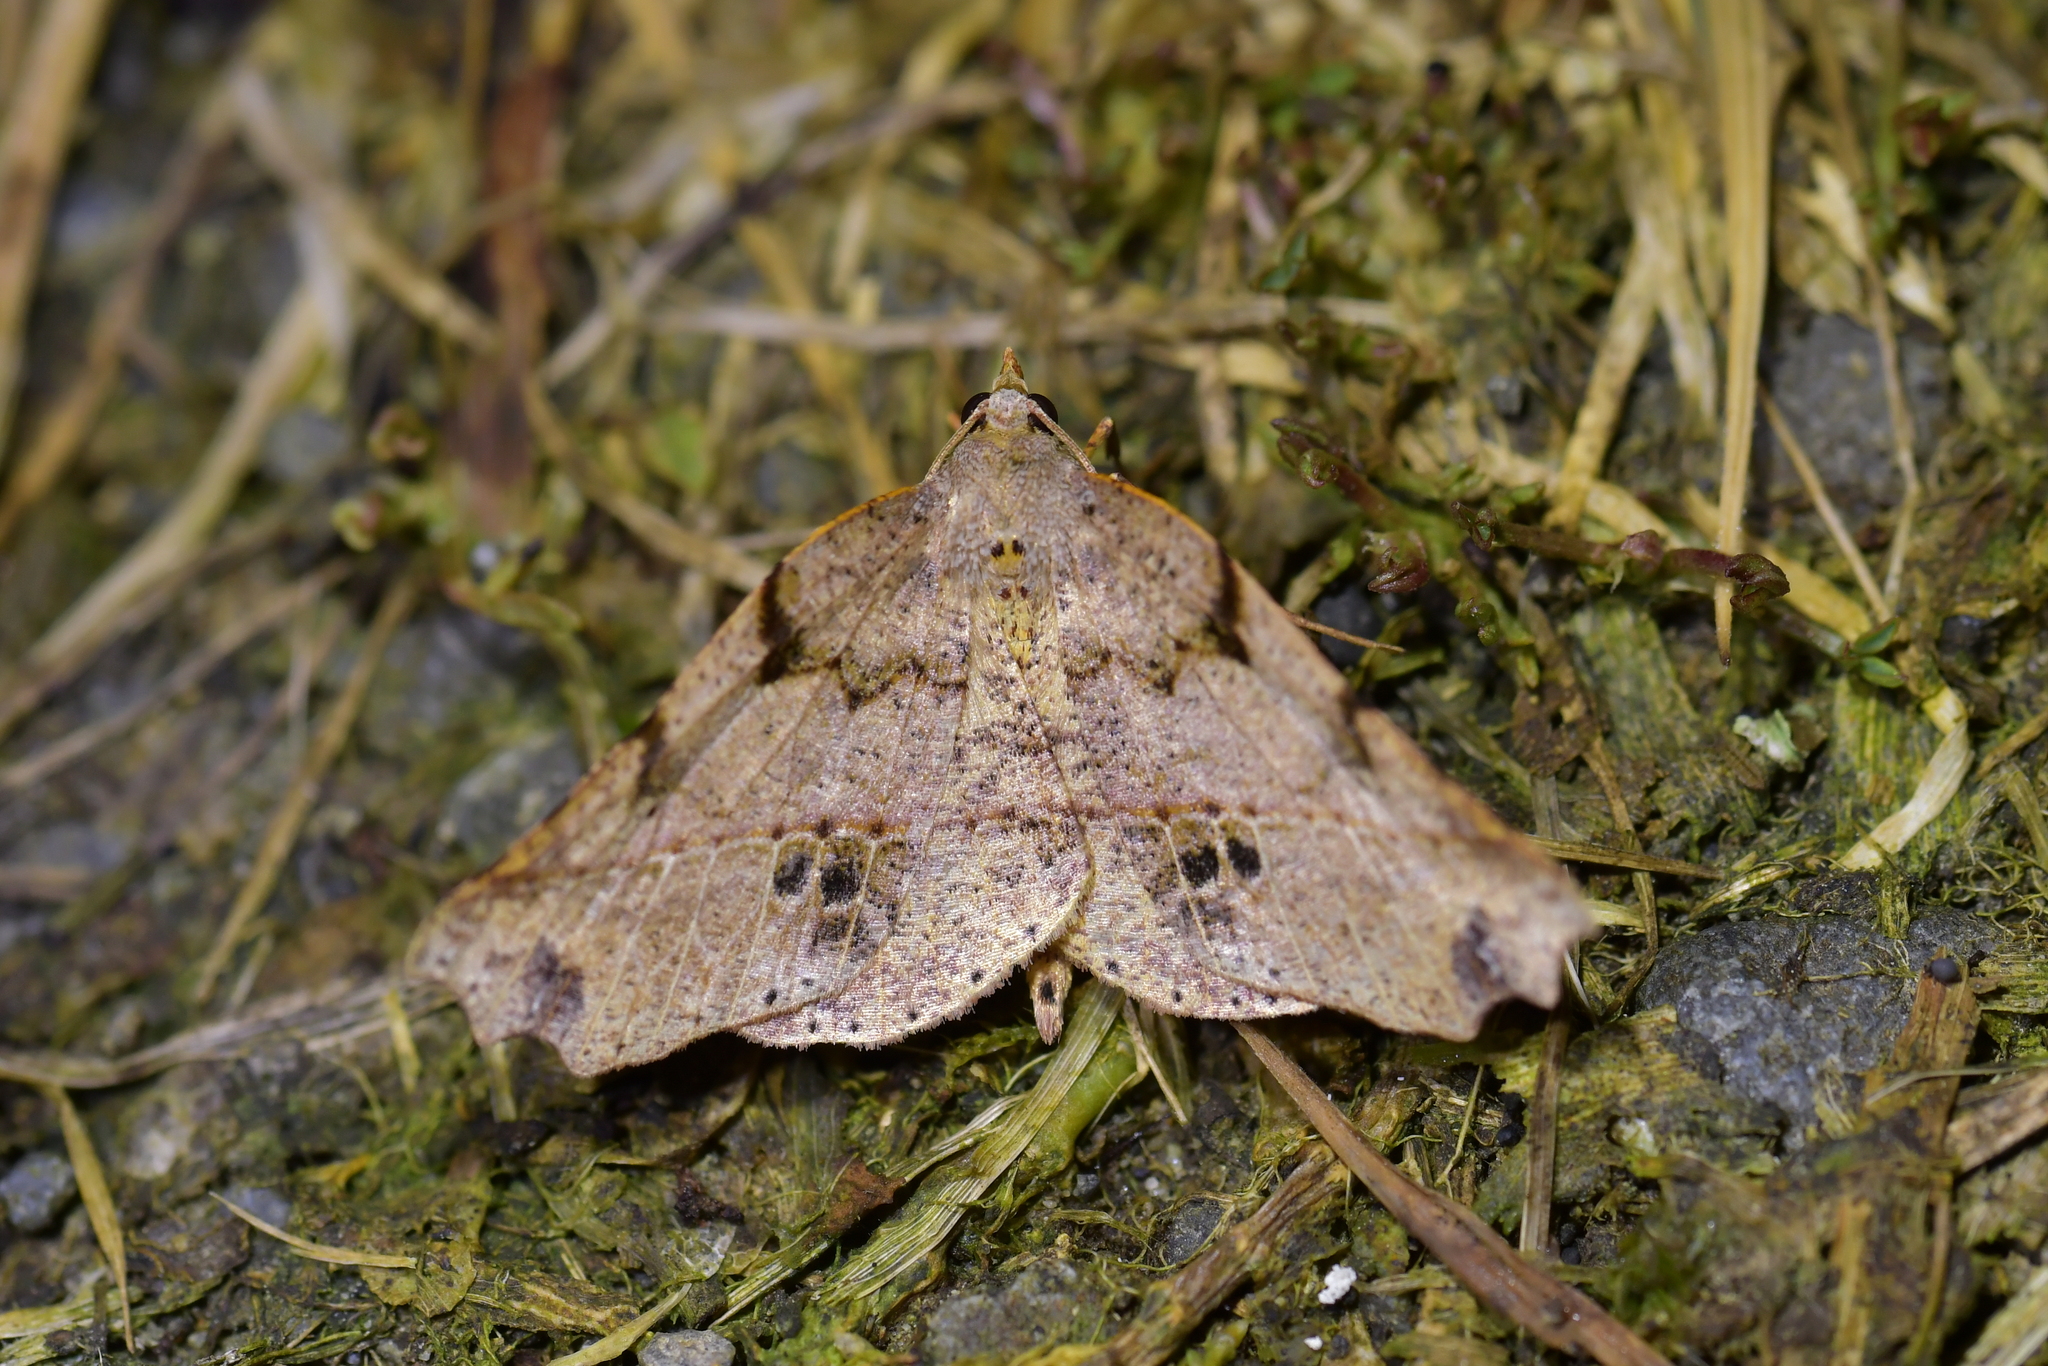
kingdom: Animalia
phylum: Arthropoda
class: Insecta
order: Lepidoptera
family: Geometridae
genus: Ischalis
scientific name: Ischalis gallaria
